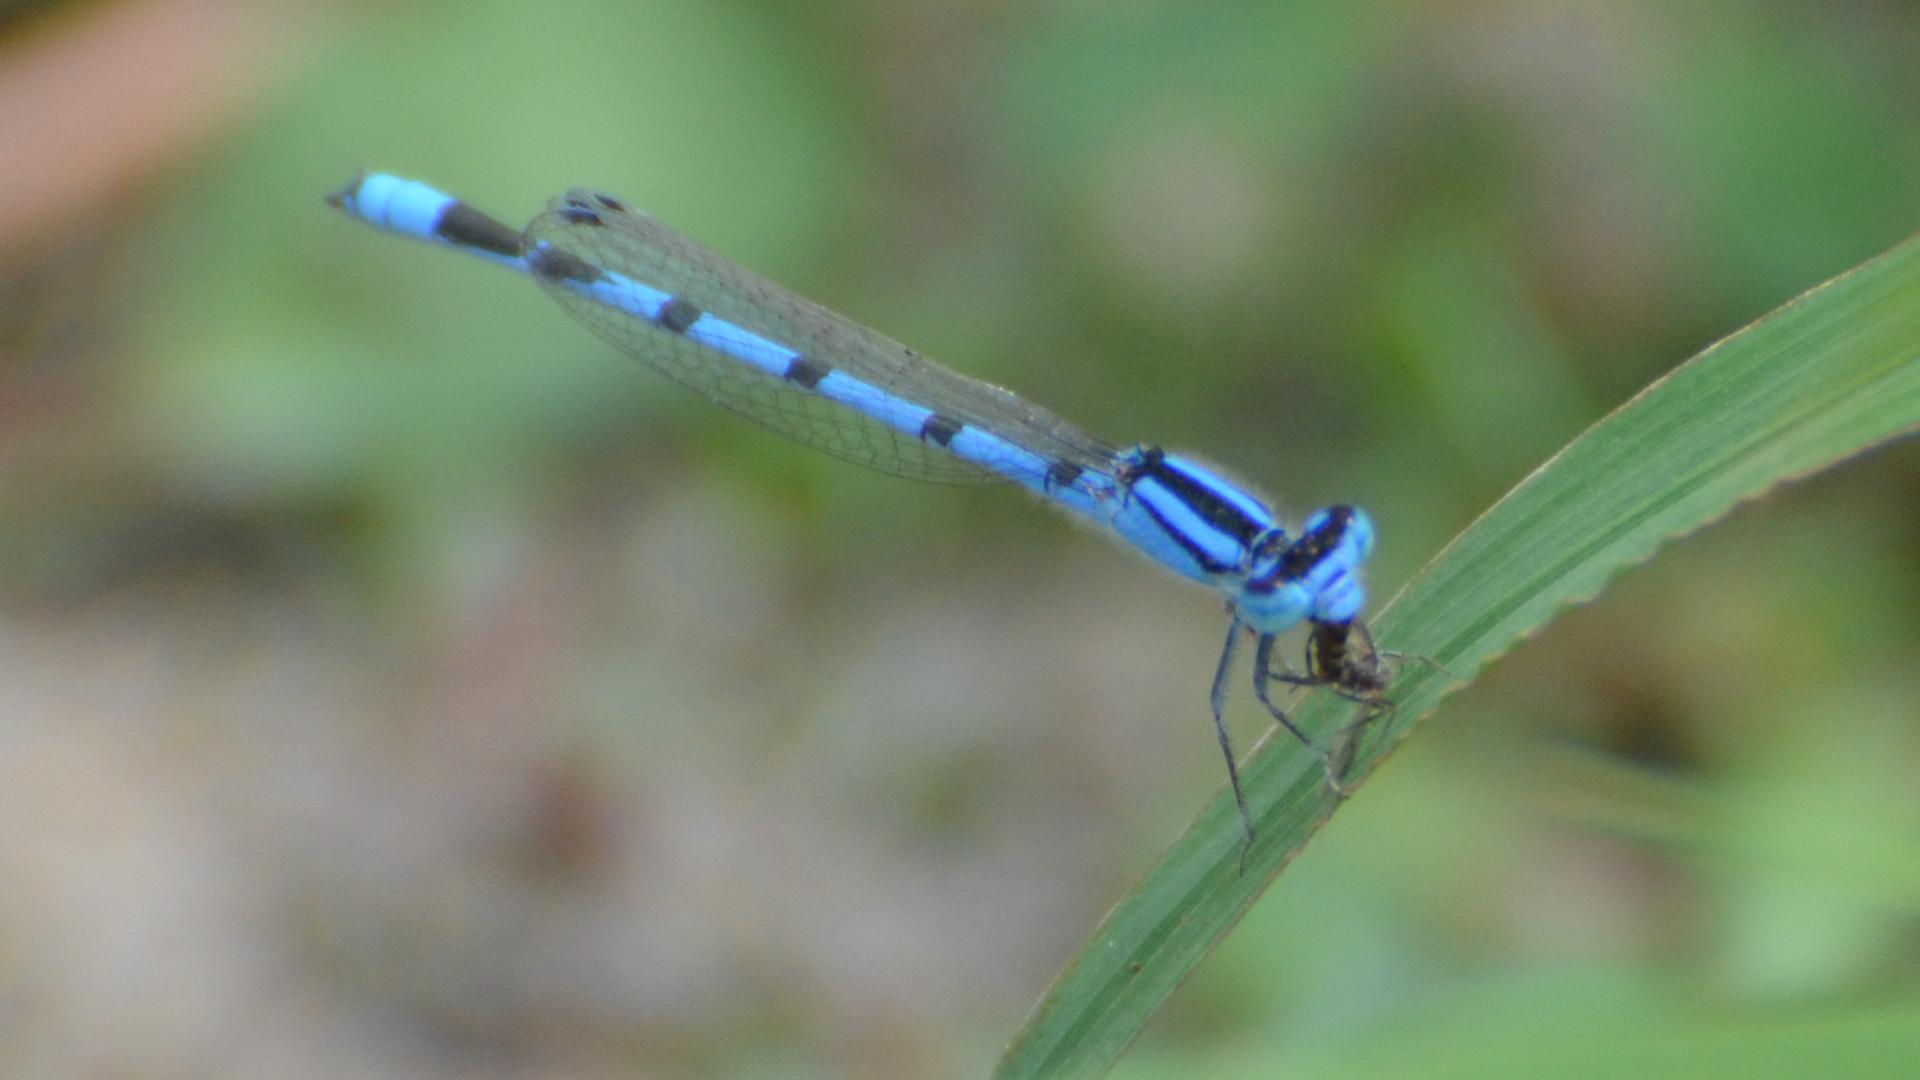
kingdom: Animalia
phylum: Arthropoda
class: Insecta
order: Odonata
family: Coenagrionidae
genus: Enallagma
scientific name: Enallagma civile
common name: Damselfly
